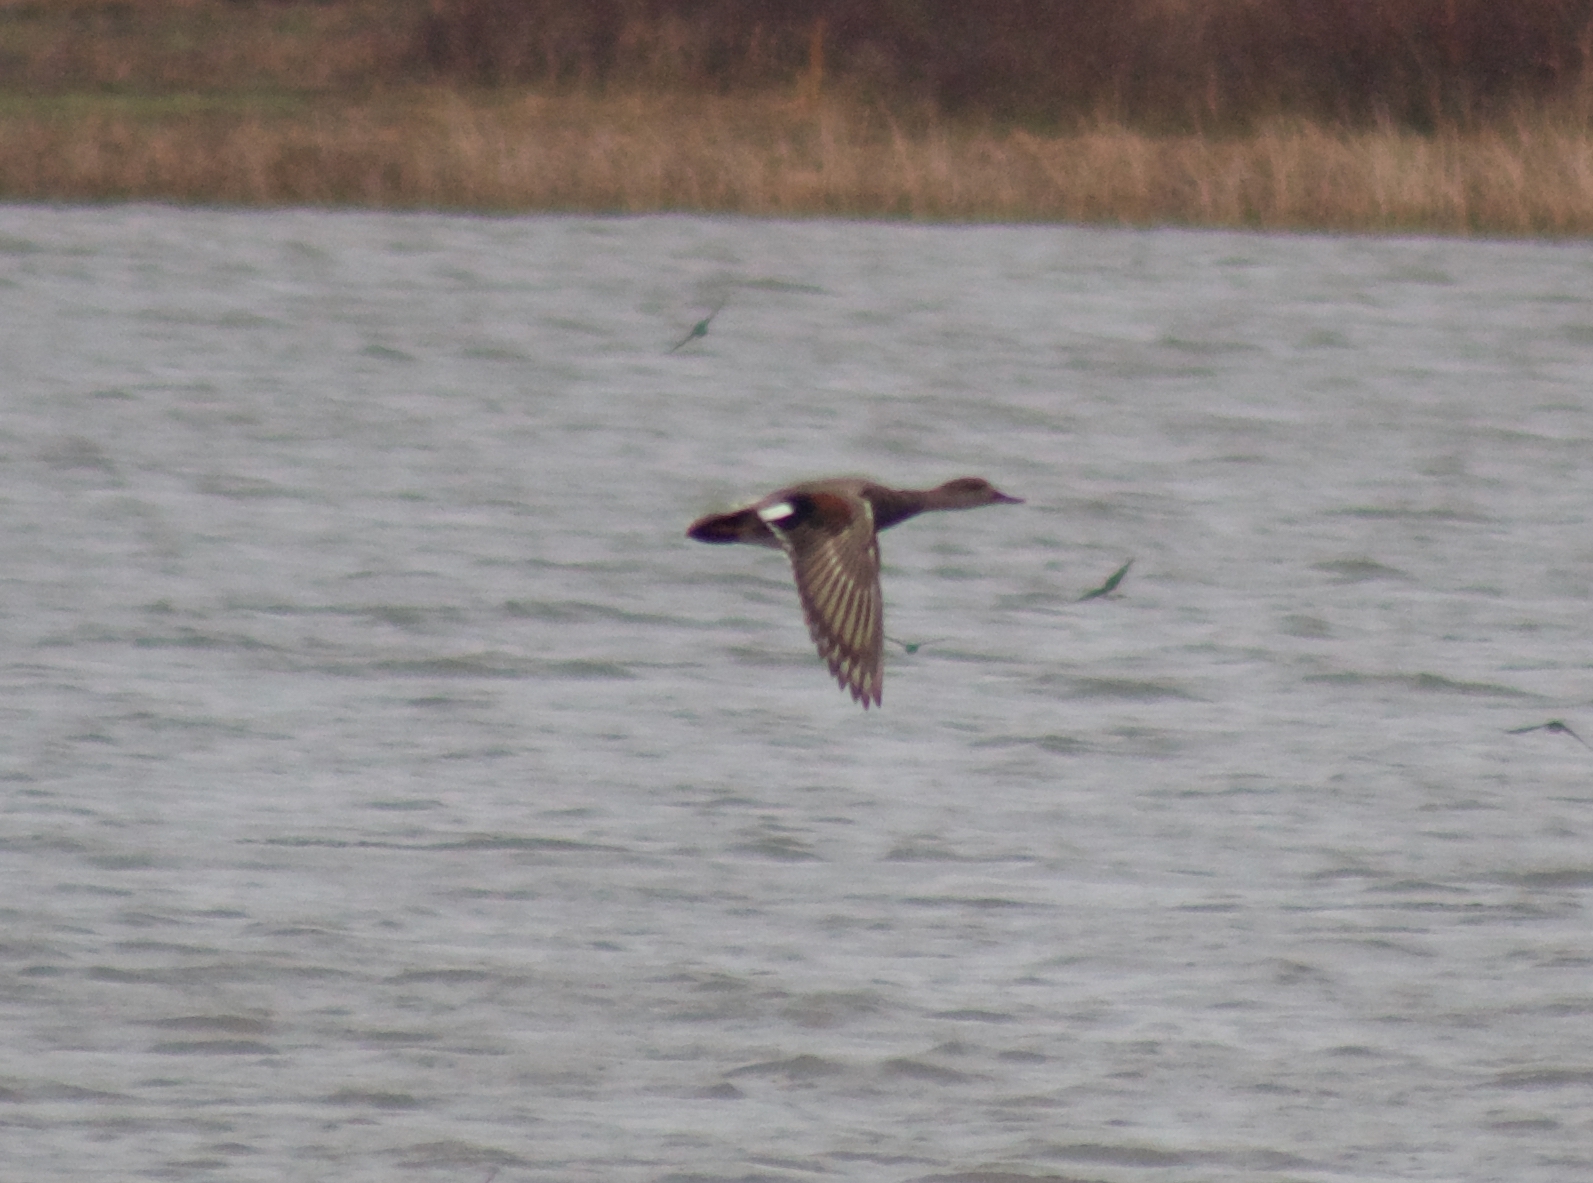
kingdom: Animalia
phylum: Chordata
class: Aves
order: Anseriformes
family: Anatidae
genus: Mareca
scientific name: Mareca strepera
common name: Gadwall
